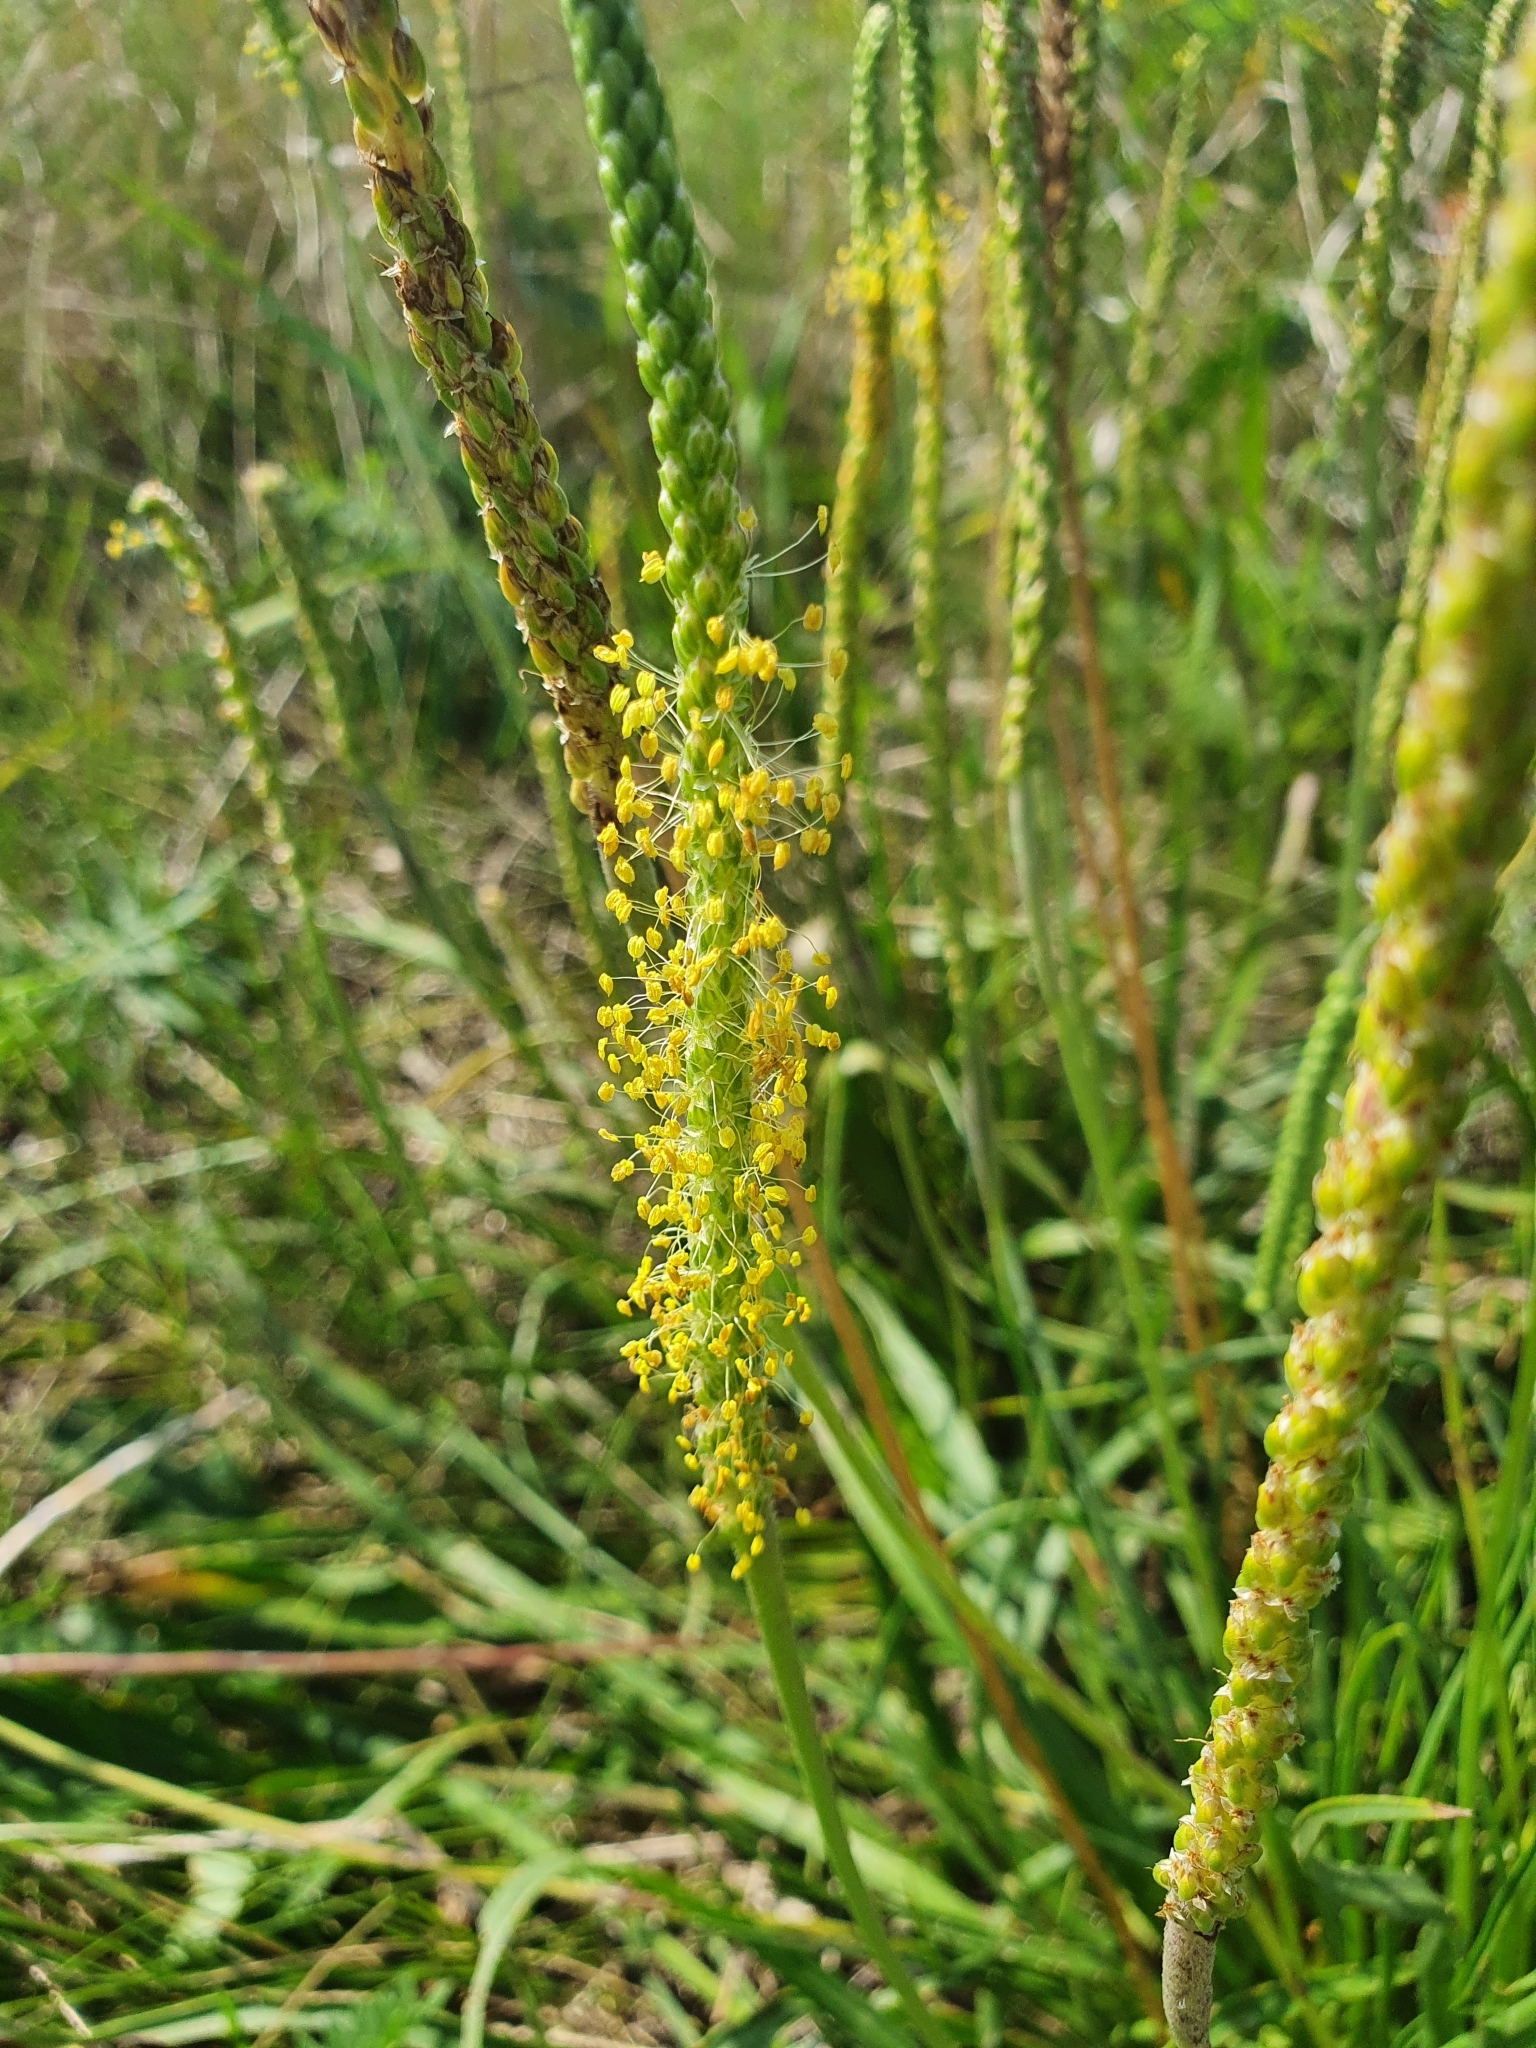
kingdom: Plantae
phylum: Tracheophyta
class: Magnoliopsida
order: Lamiales
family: Plantaginaceae
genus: Plantago
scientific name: Plantago salsa
